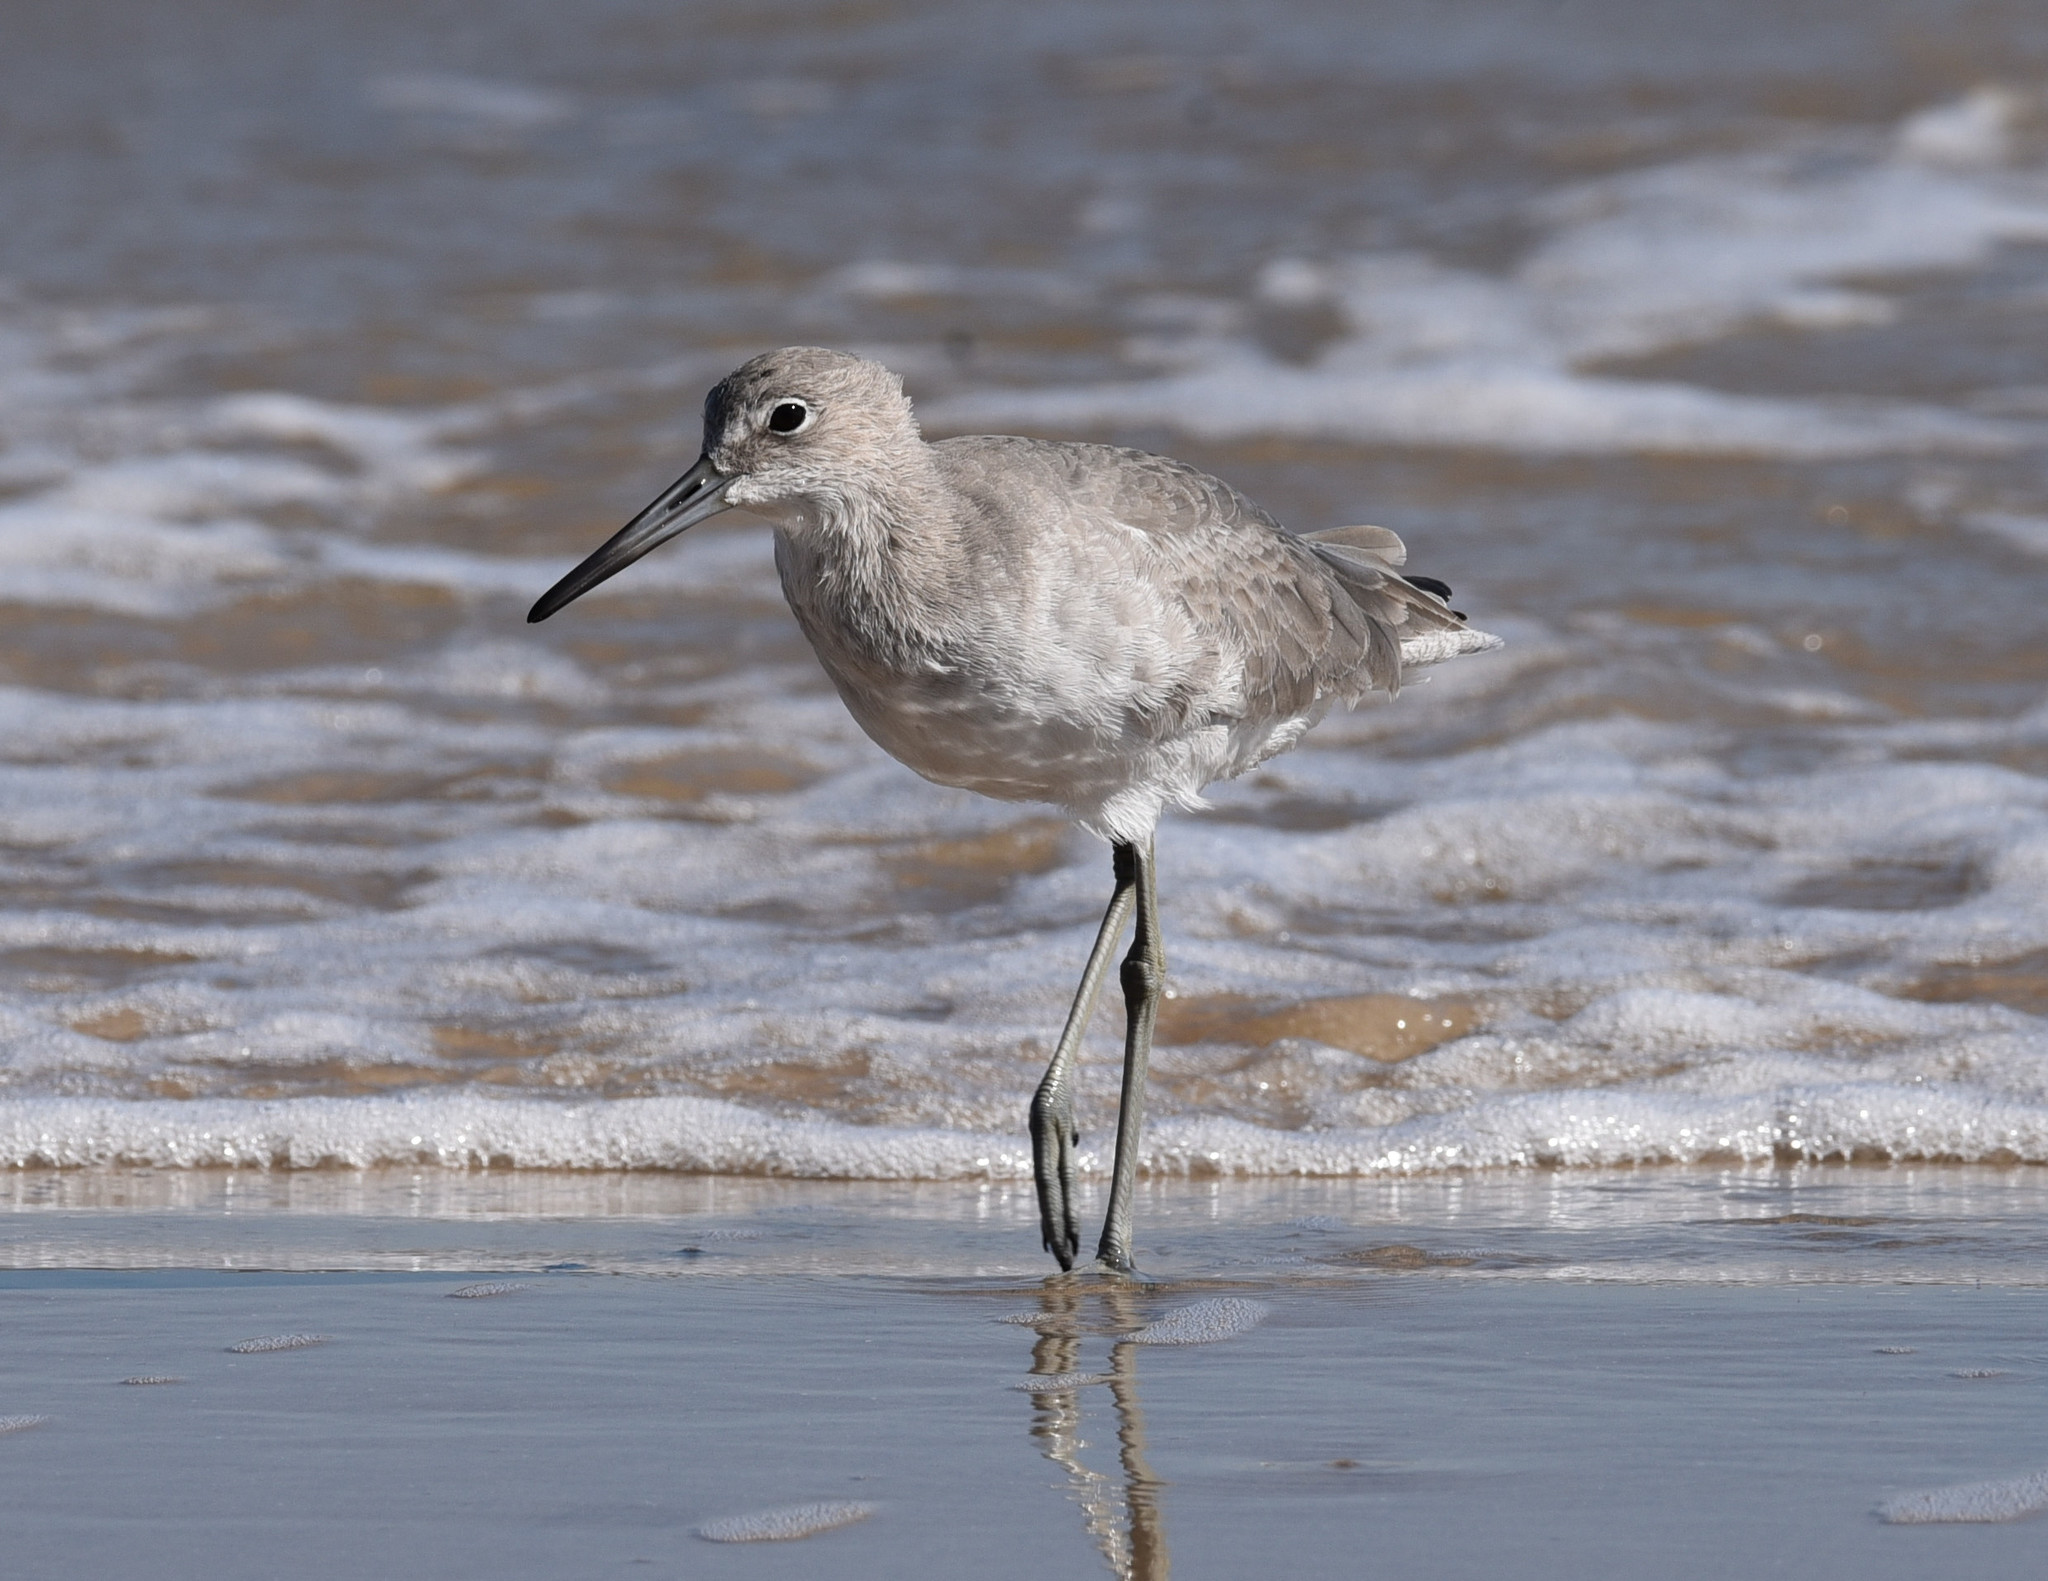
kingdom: Animalia
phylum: Chordata
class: Aves
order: Charadriiformes
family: Scolopacidae
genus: Tringa
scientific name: Tringa semipalmata
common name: Willet
